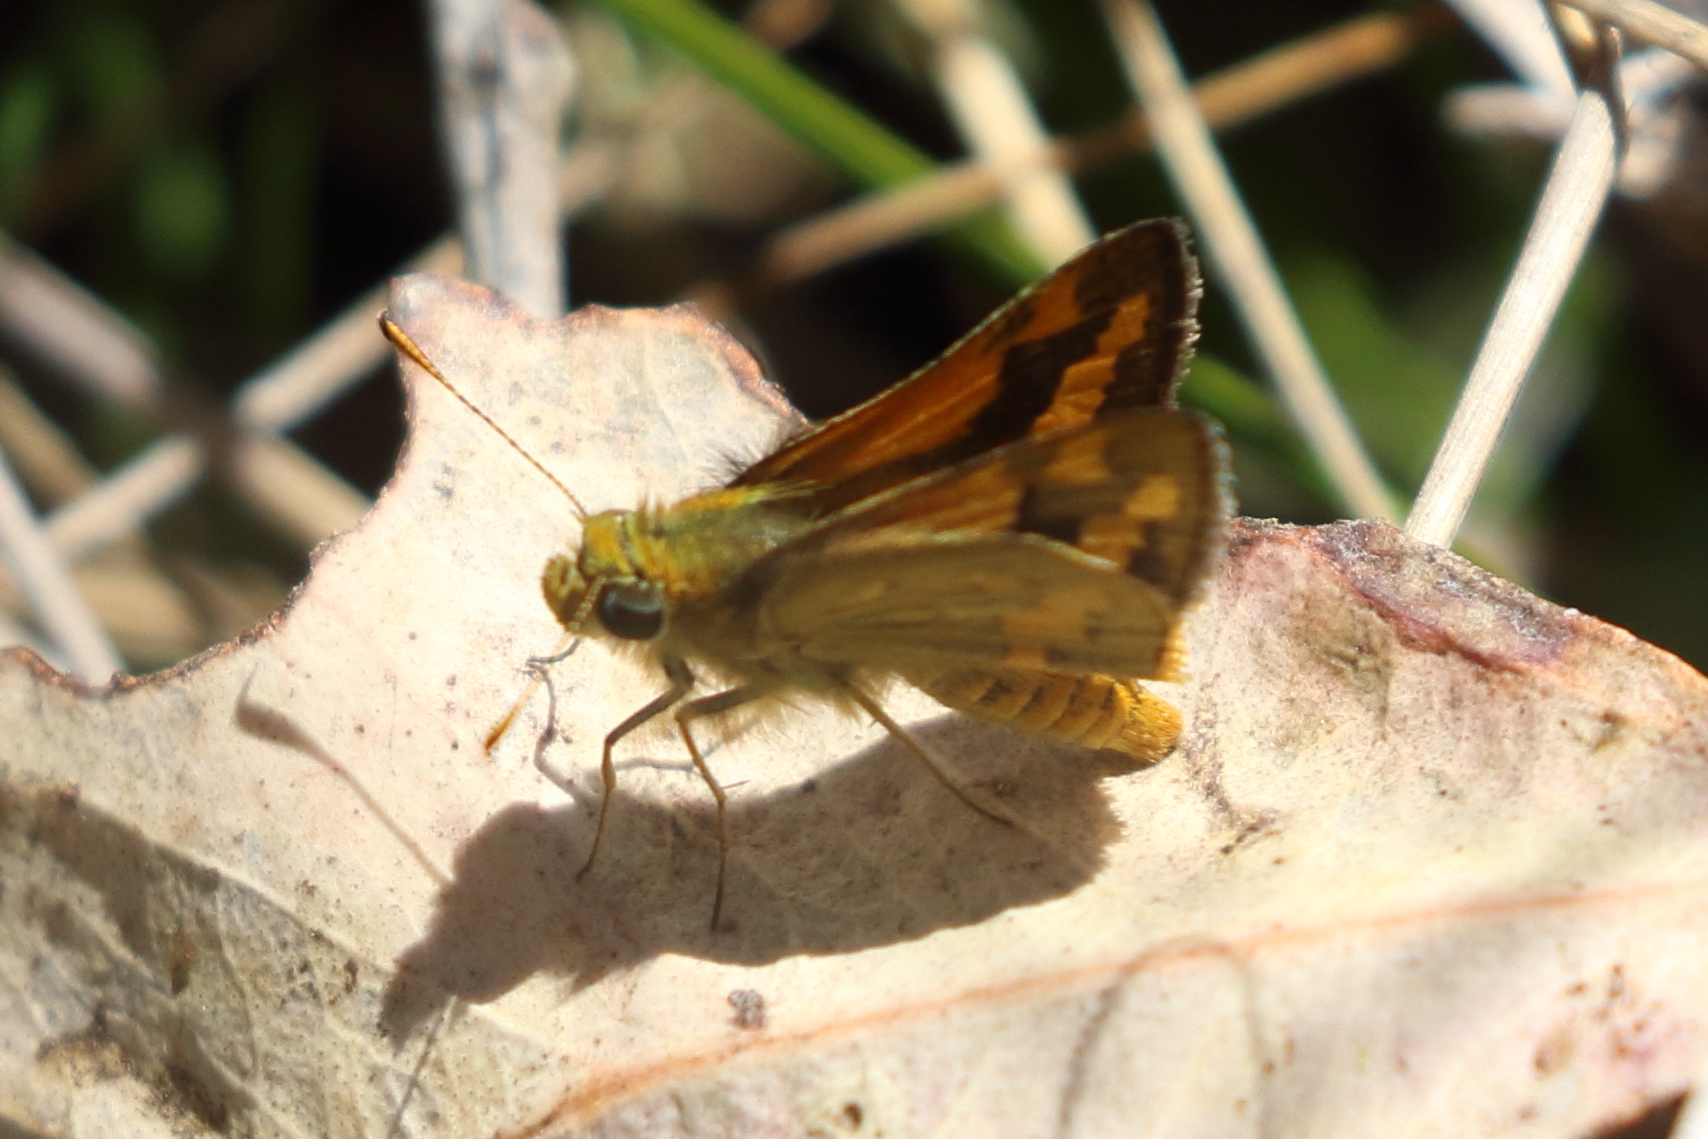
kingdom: Animalia
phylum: Arthropoda
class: Insecta
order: Lepidoptera
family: Hesperiidae
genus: Ocybadistes
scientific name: Ocybadistes walkeri
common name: Yellow-banded dart
